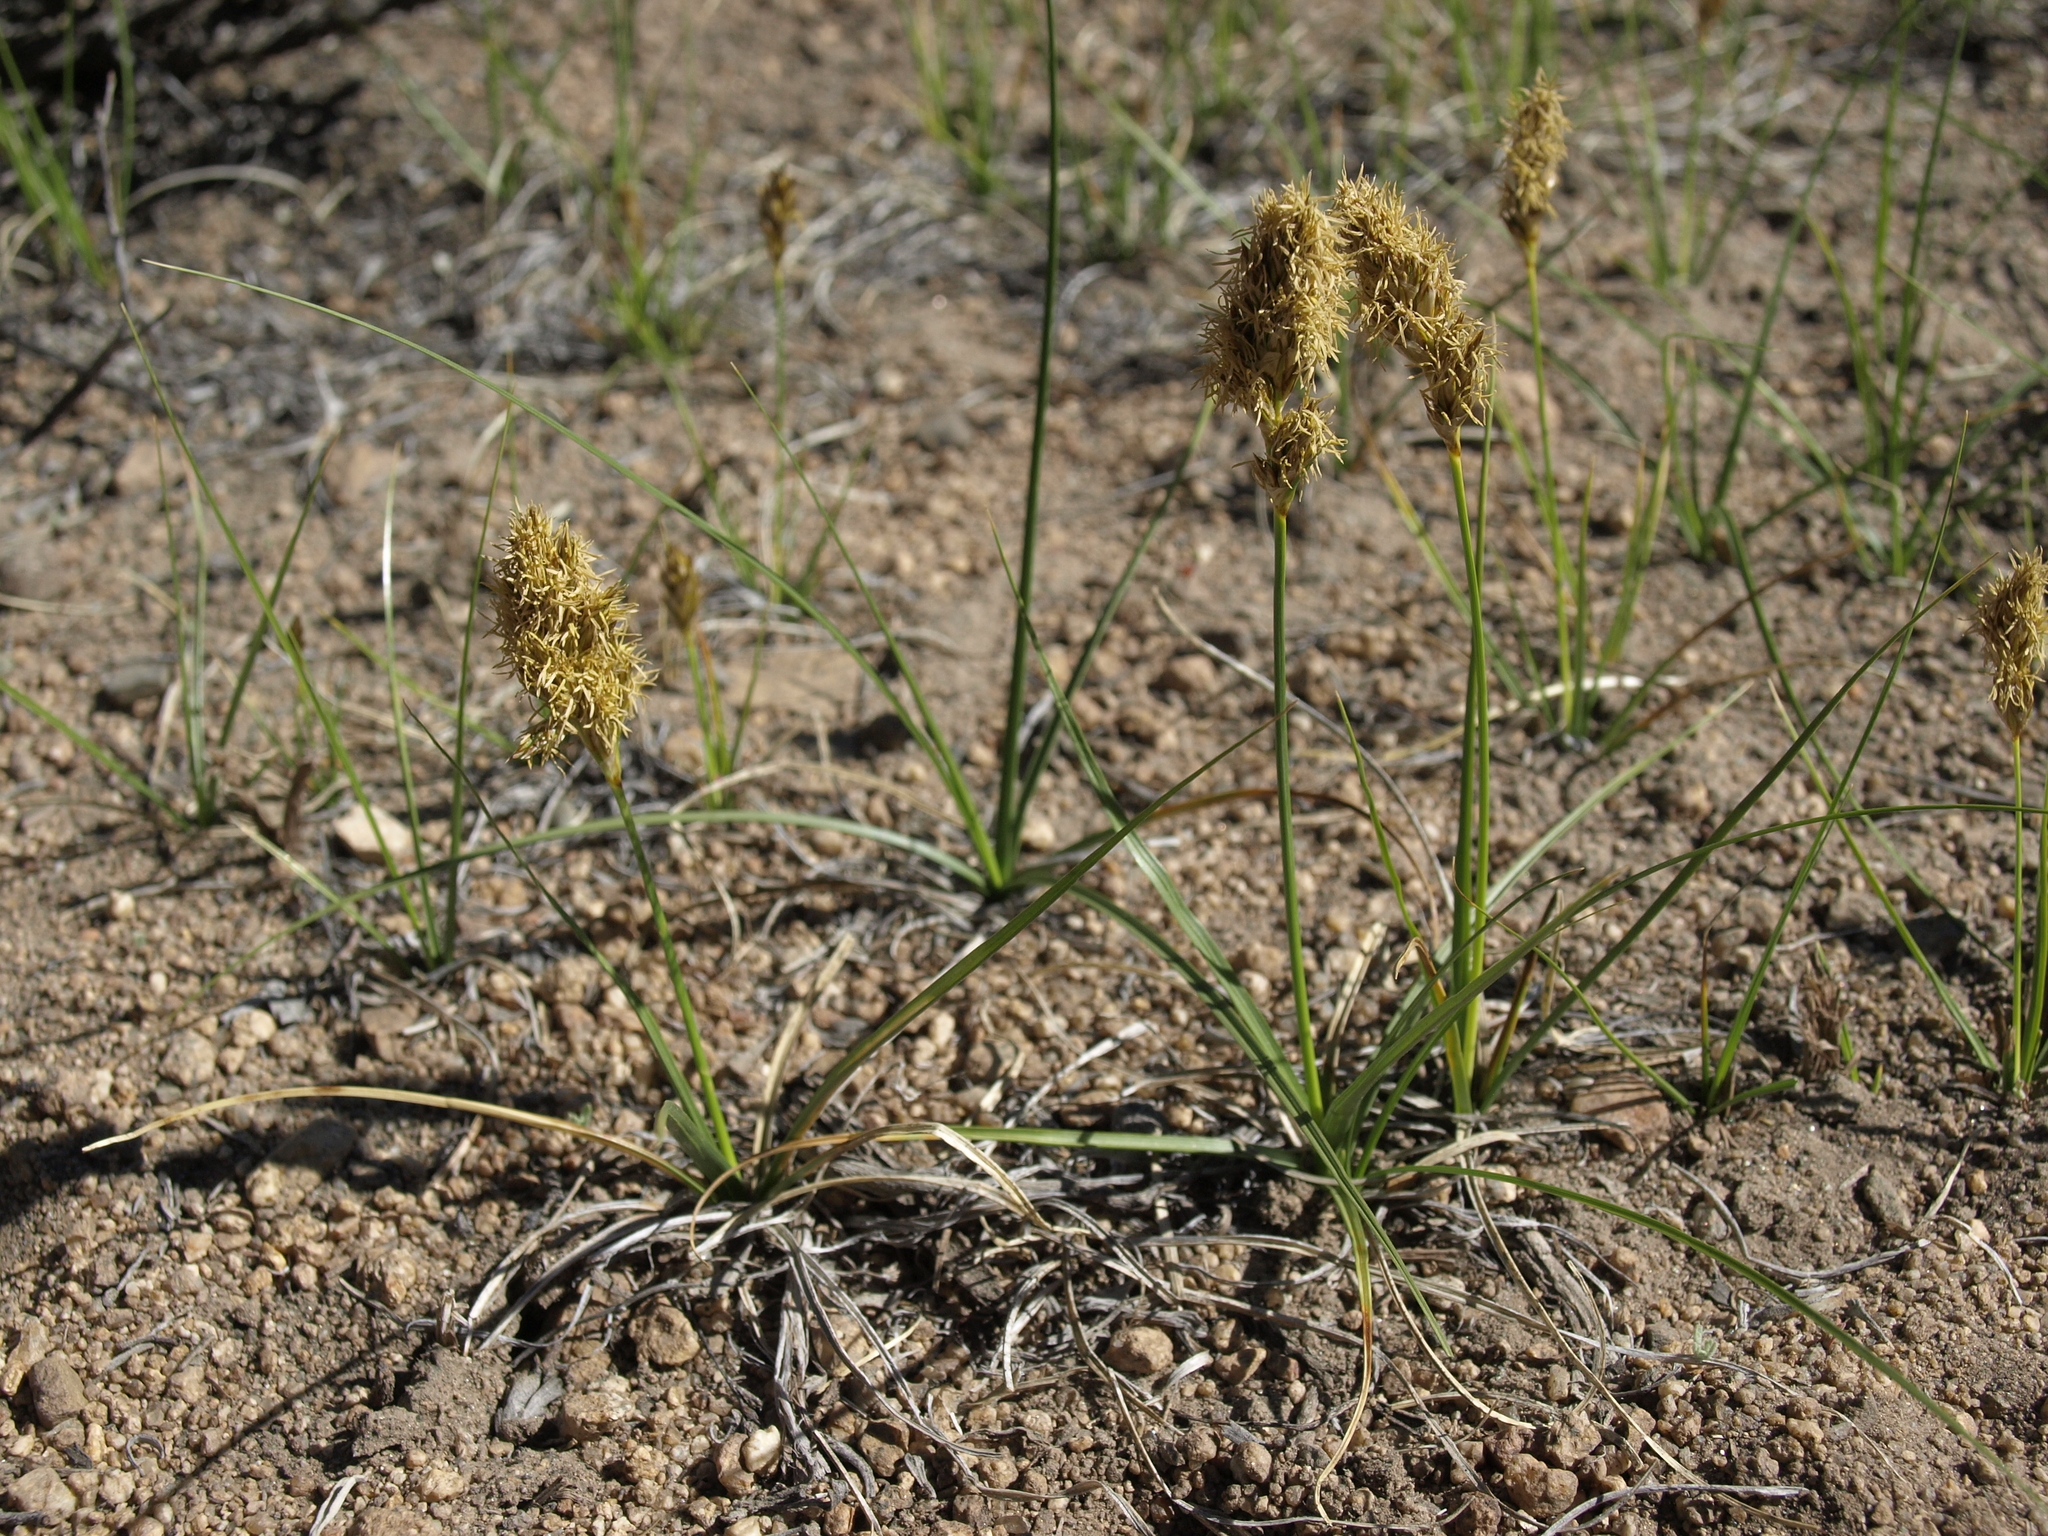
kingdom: Plantae
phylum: Tracheophyta
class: Liliopsida
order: Poales
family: Cyperaceae
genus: Carex
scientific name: Carex douglasii
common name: Douglas' sedge
